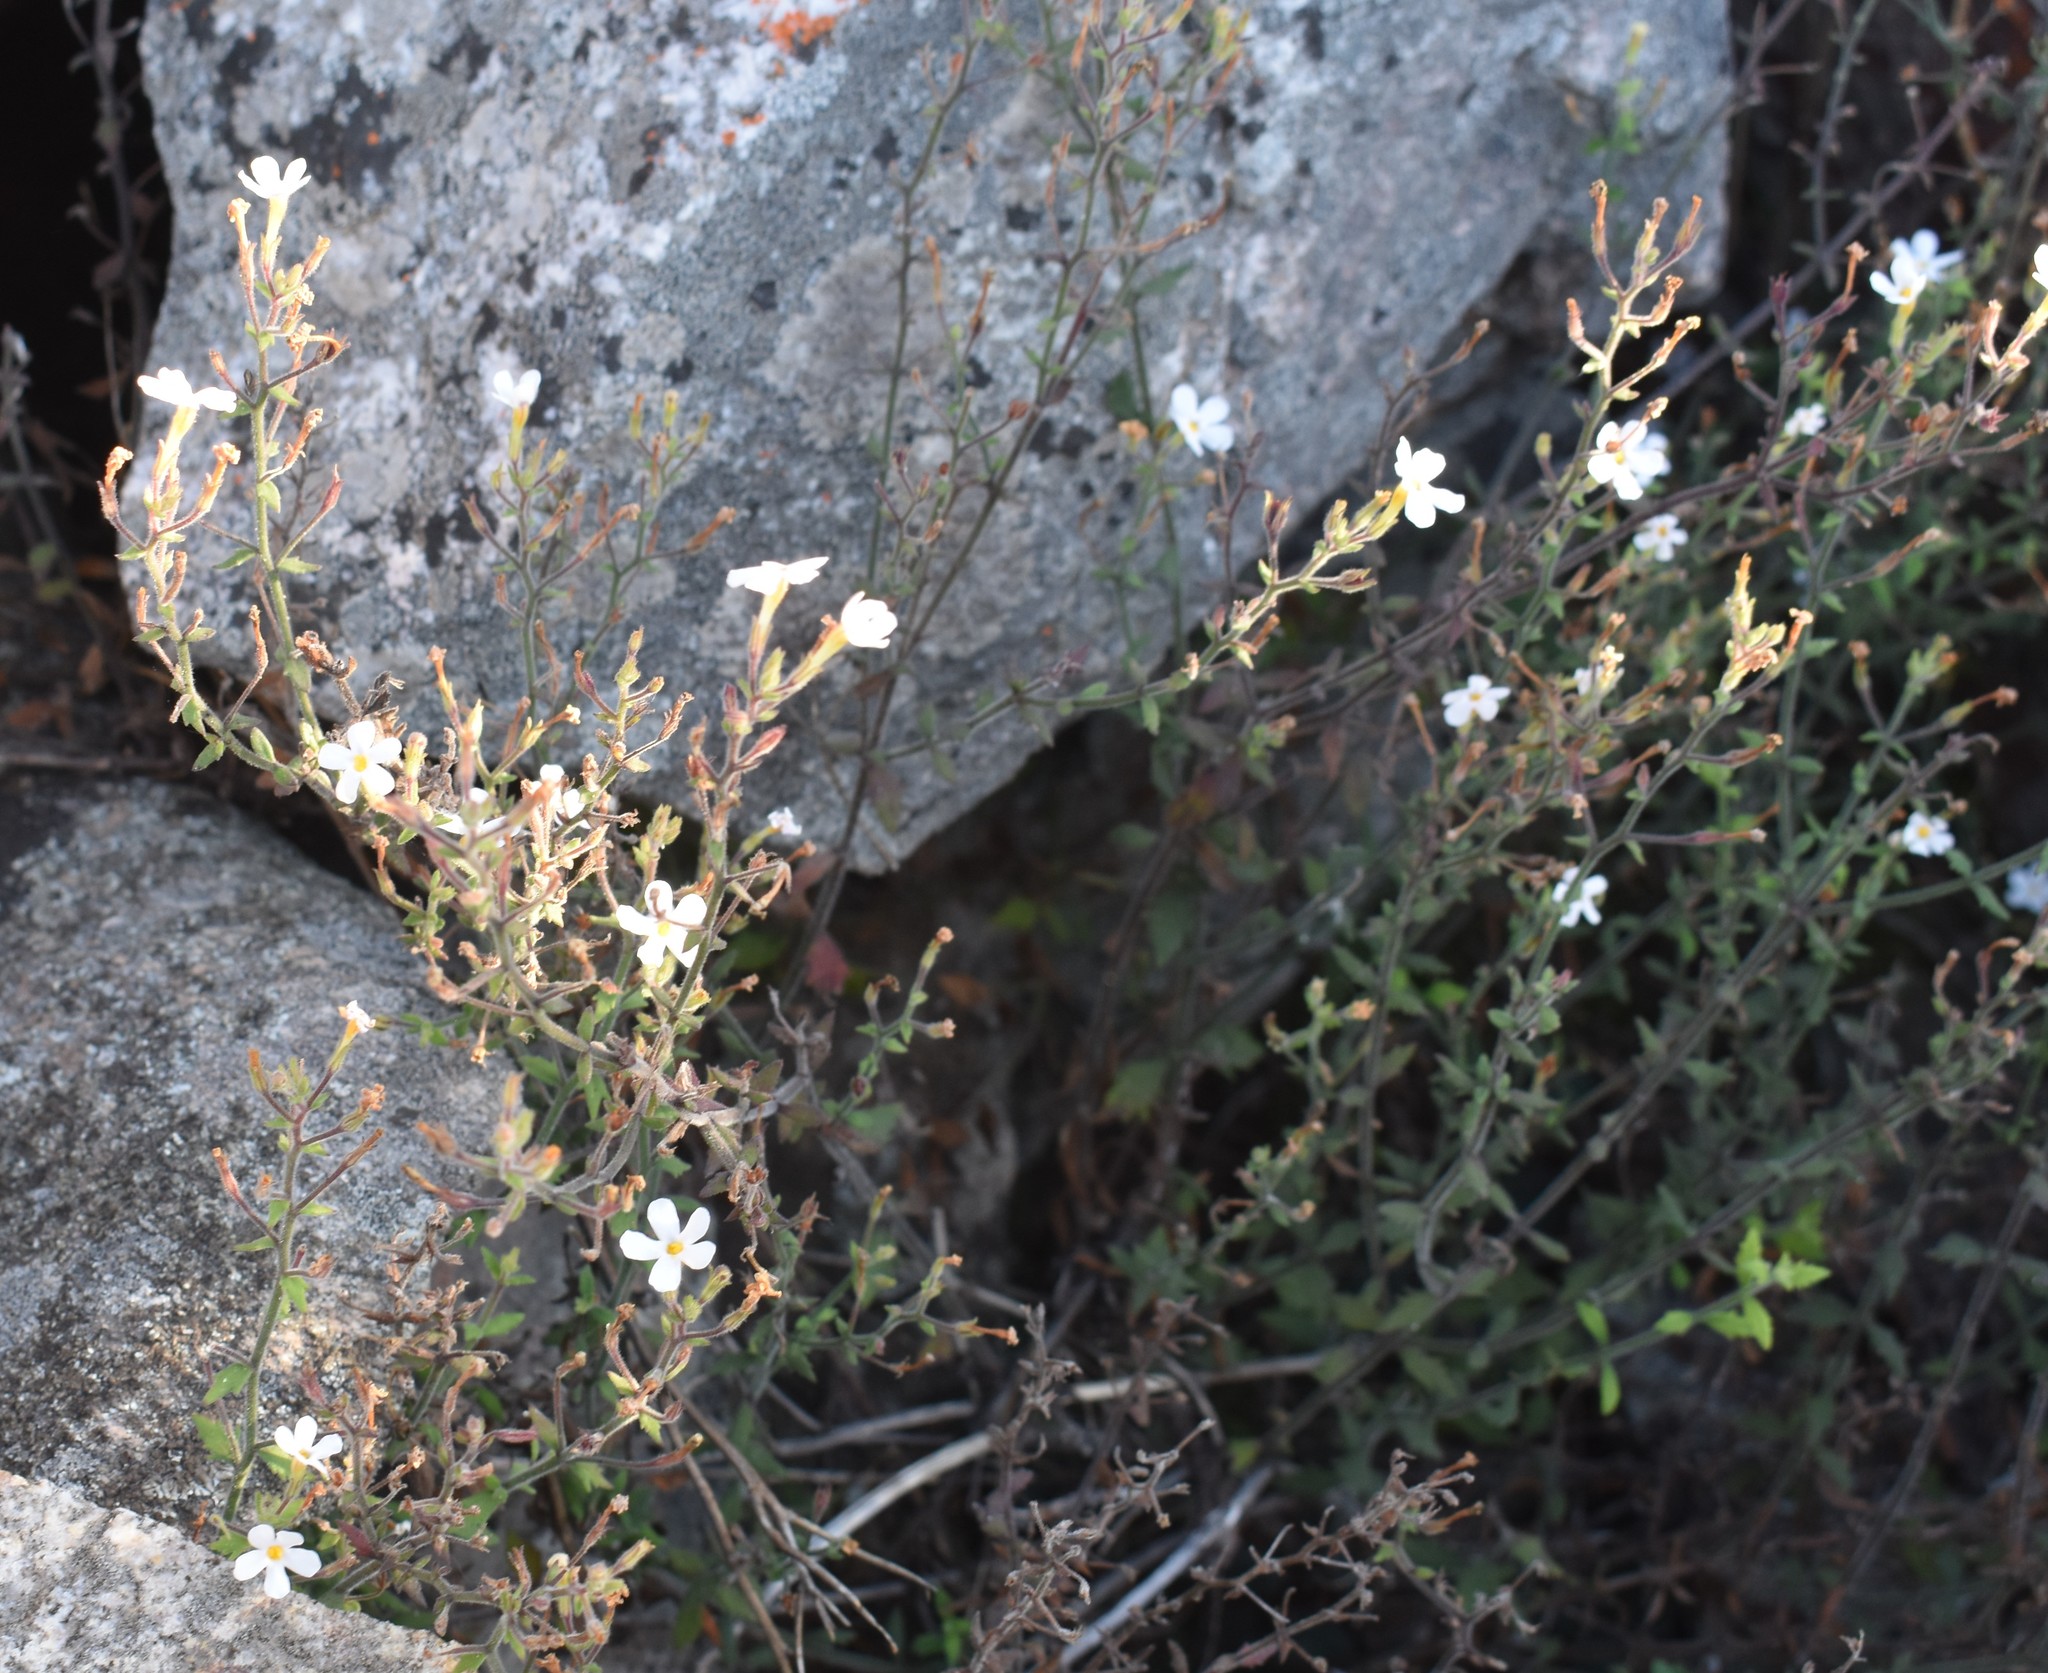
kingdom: Plantae
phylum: Tracheophyta
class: Magnoliopsida
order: Lamiales
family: Scrophulariaceae
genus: Chaenostoma
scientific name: Chaenostoma decipiens
